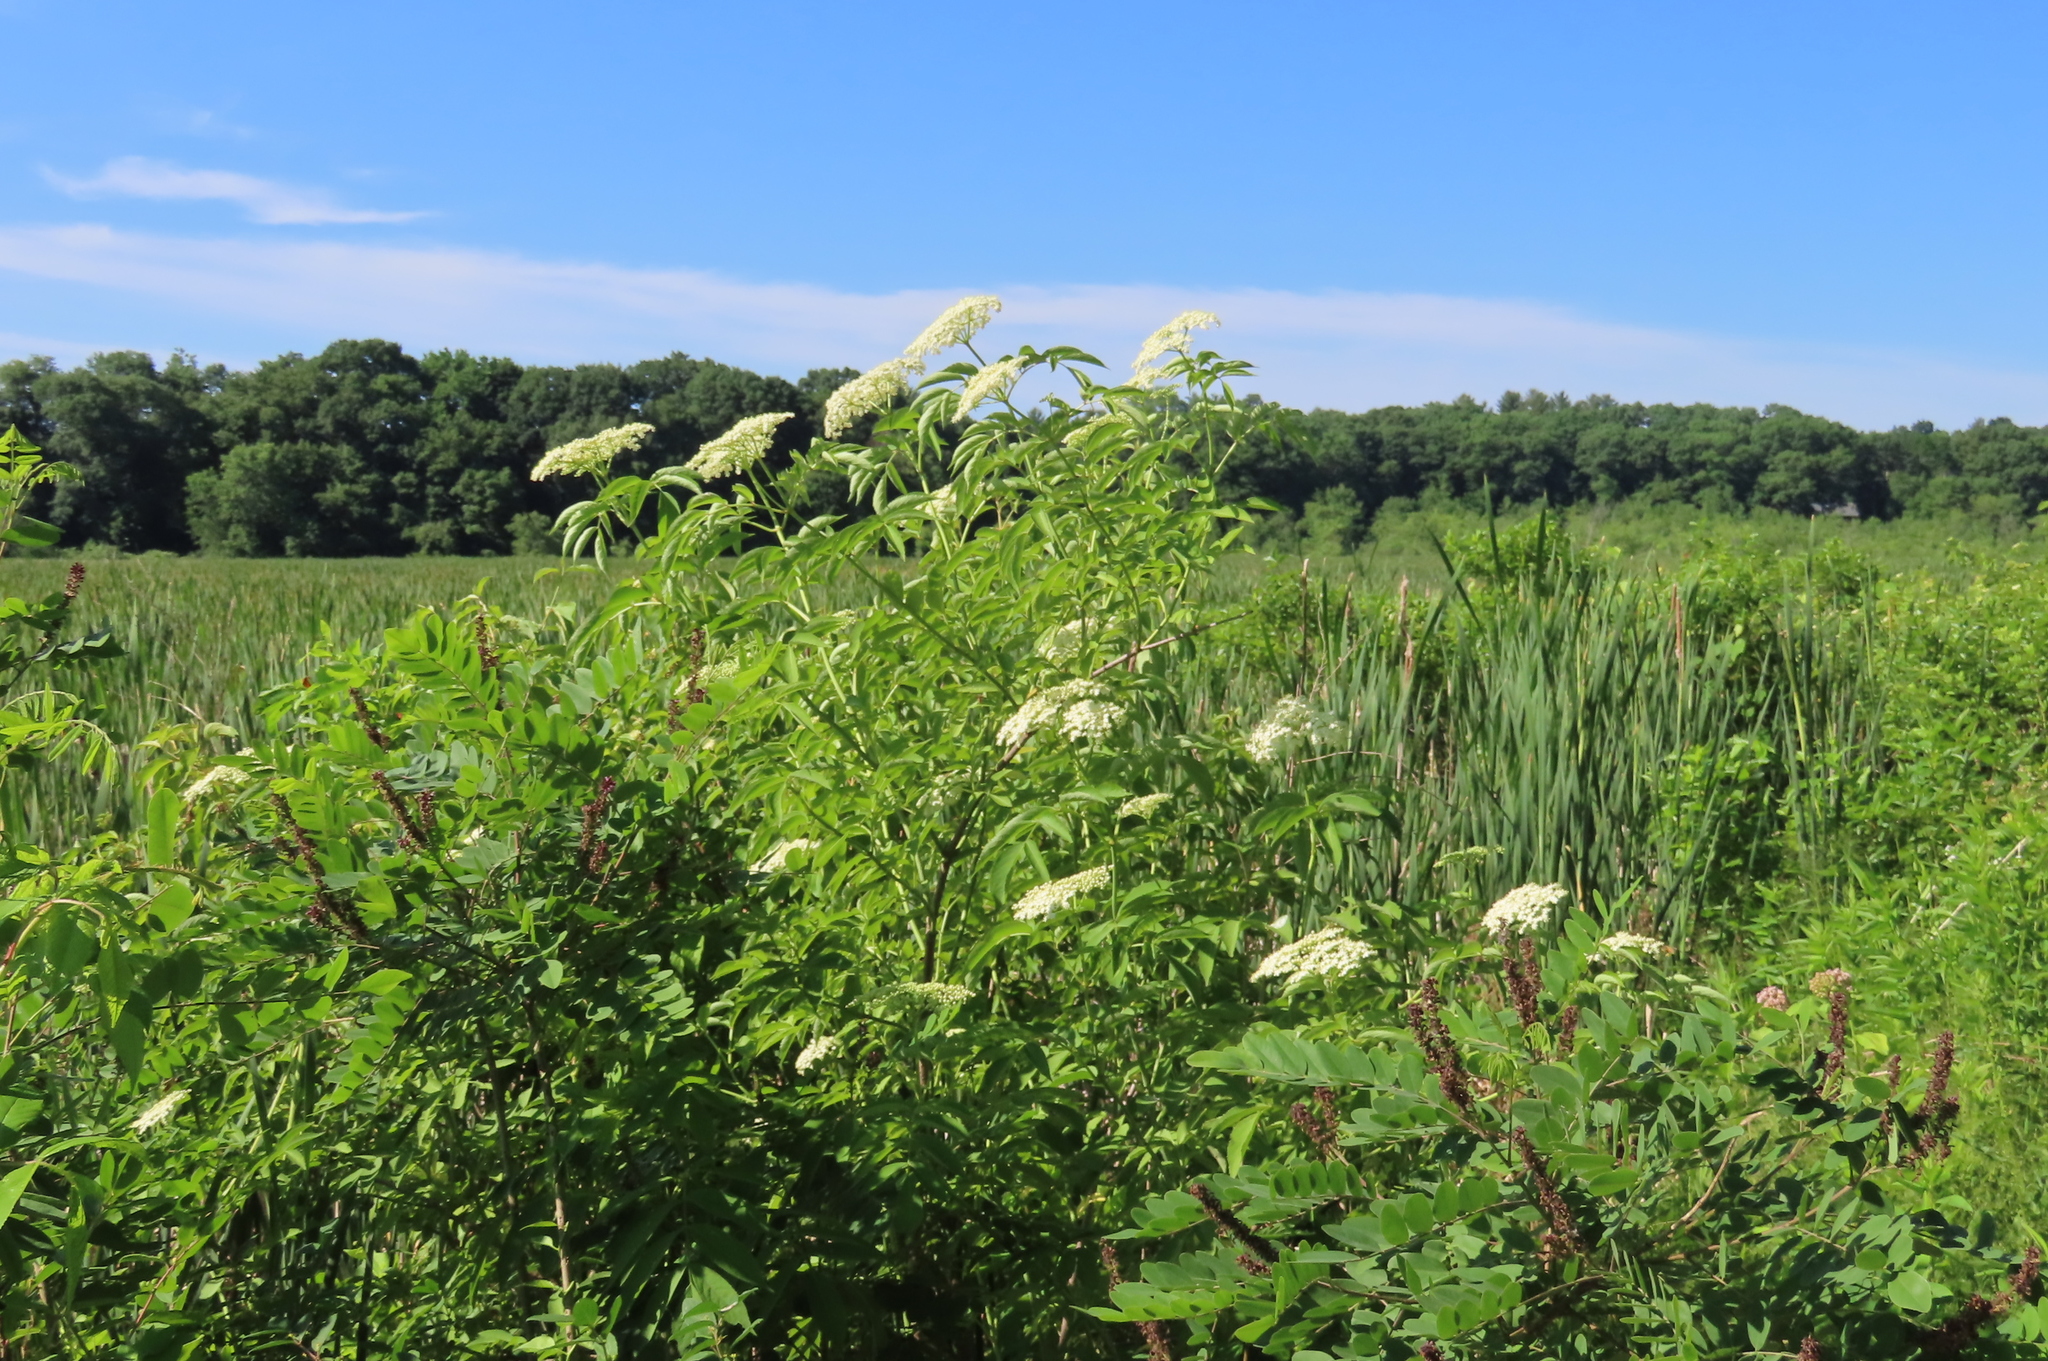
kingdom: Plantae
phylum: Tracheophyta
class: Magnoliopsida
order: Dipsacales
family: Viburnaceae
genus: Sambucus
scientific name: Sambucus canadensis
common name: American elder
